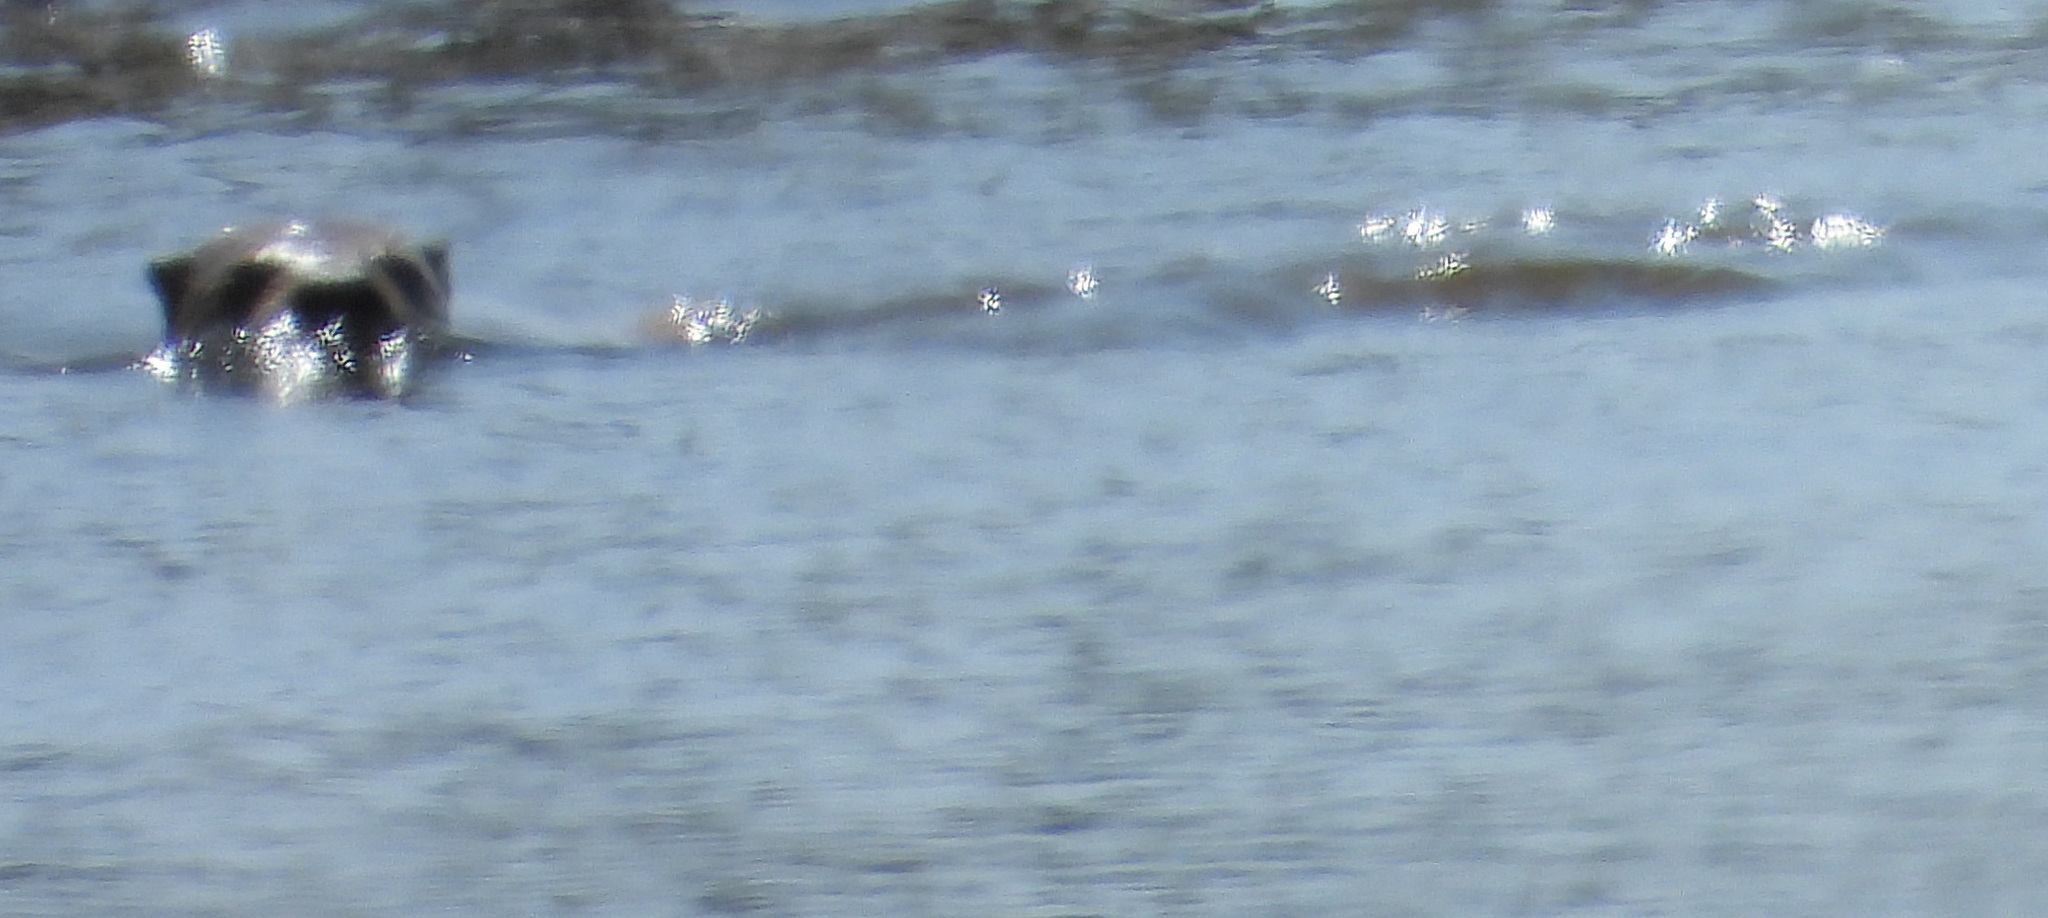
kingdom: Animalia
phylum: Chordata
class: Mammalia
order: Carnivora
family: Mustelidae
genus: Lontra
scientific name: Lontra canadensis
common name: North american river otter
